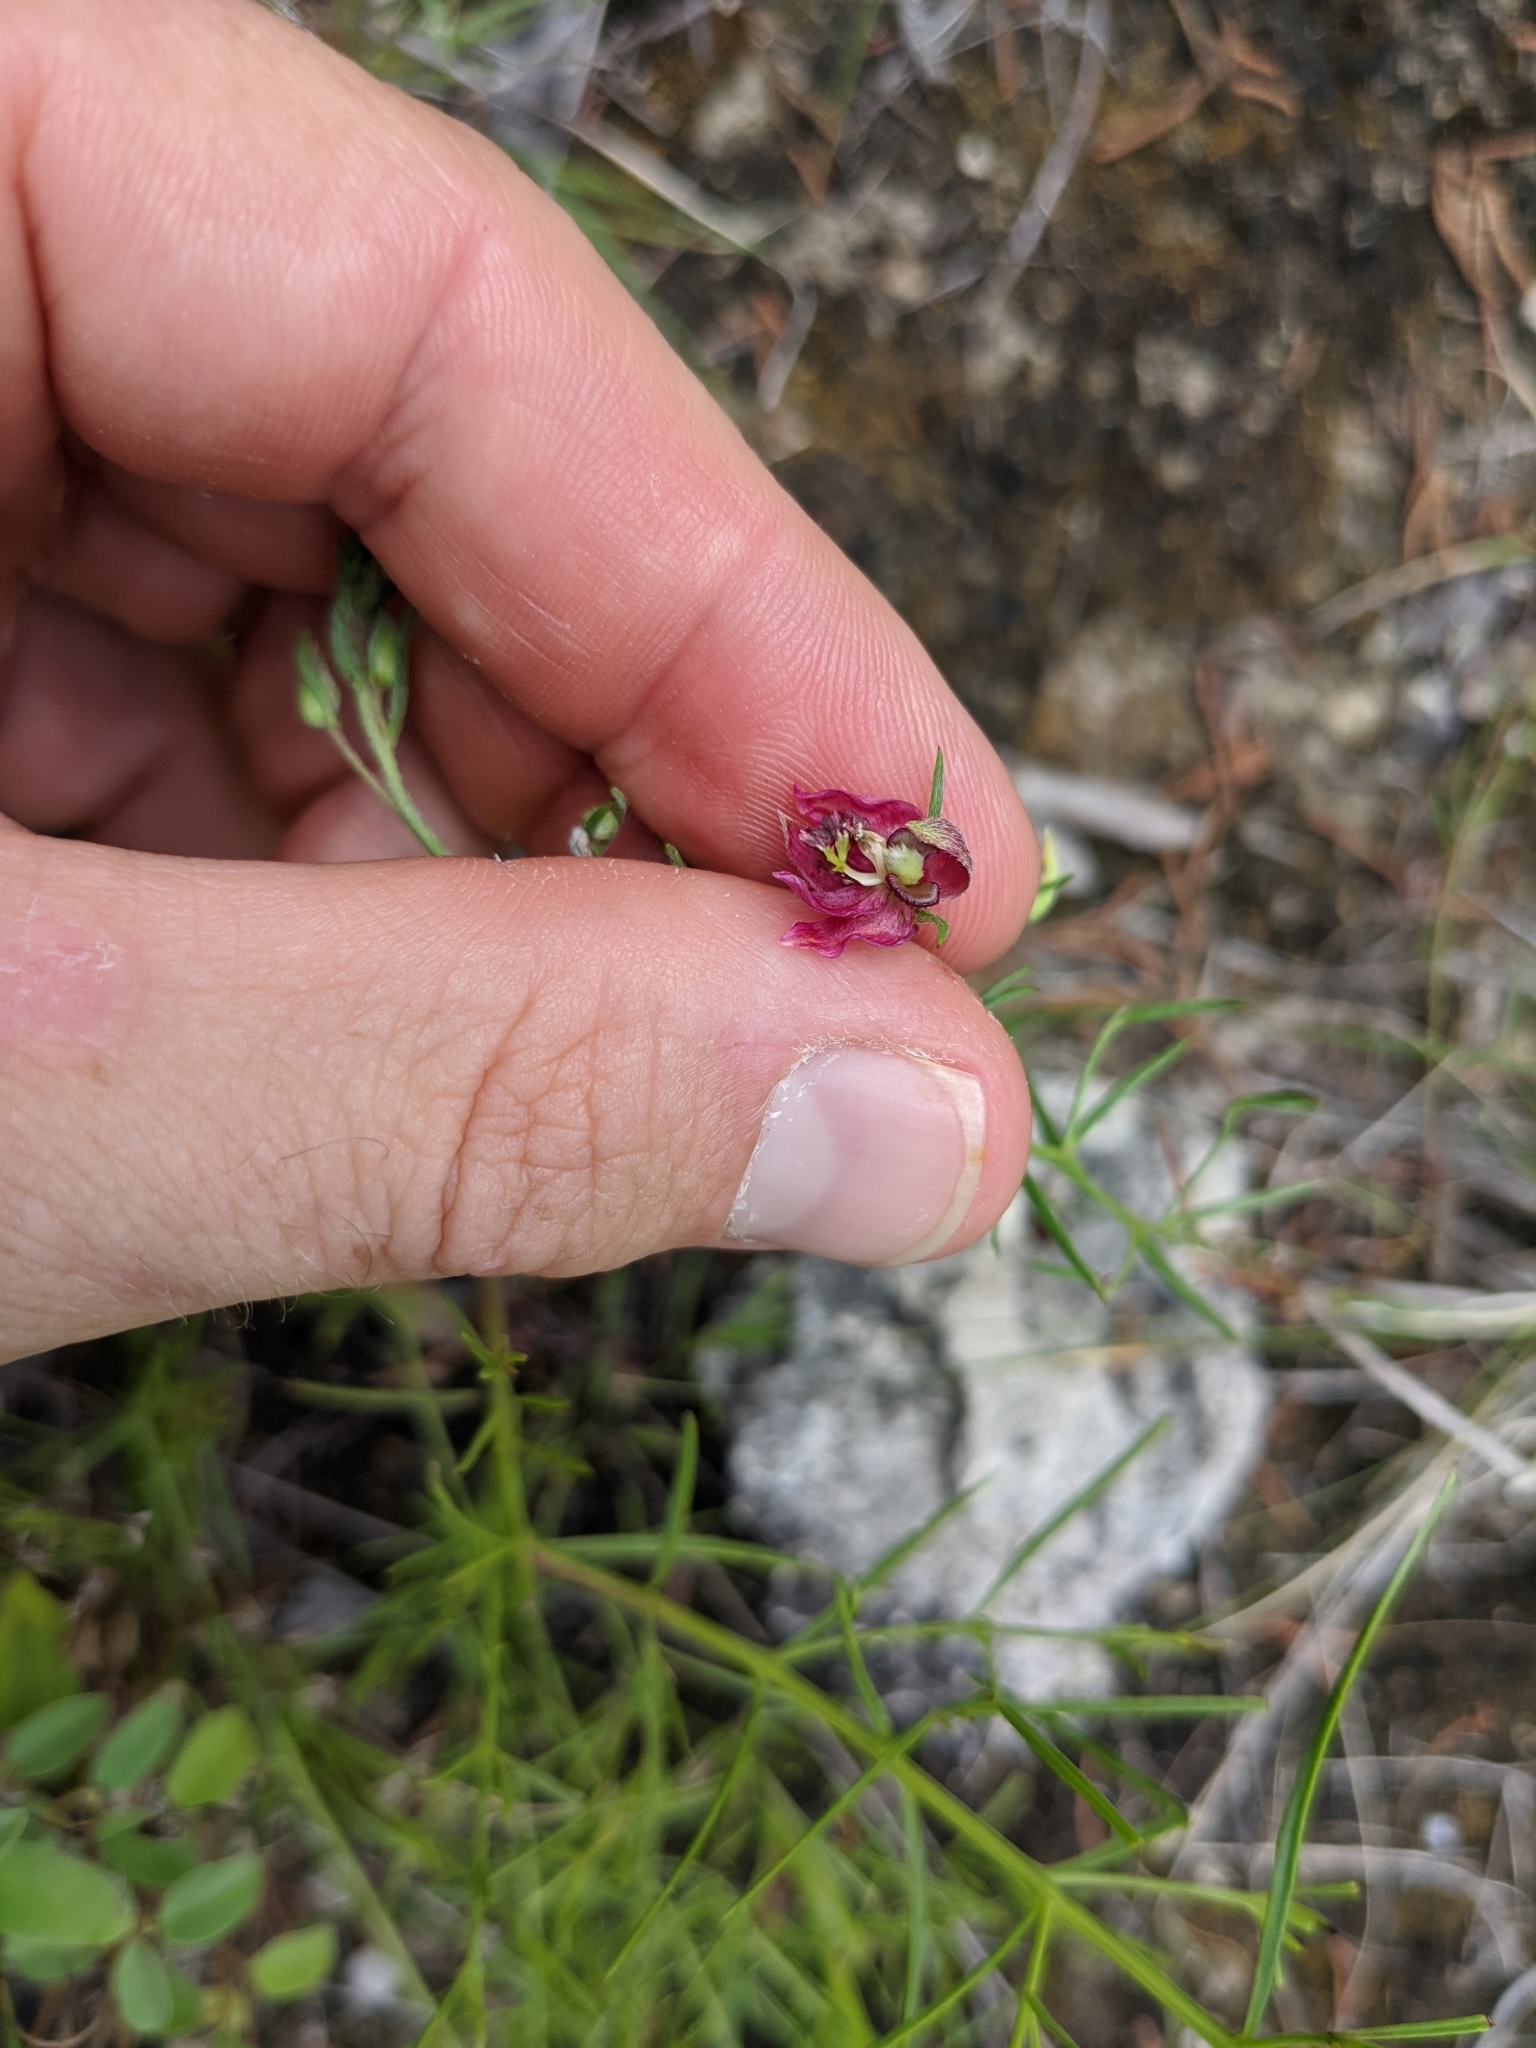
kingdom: Plantae
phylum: Tracheophyta
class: Magnoliopsida
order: Zygophyllales
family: Krameriaceae
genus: Krameria
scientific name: Krameria lanceolata
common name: Ratany
